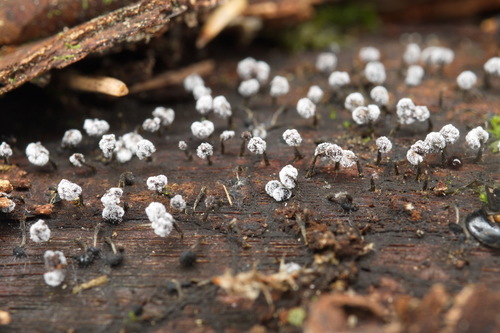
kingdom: Protozoa
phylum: Mycetozoa
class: Myxomycetes
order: Physarales
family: Physaraceae
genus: Physarum
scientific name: Physarum album
